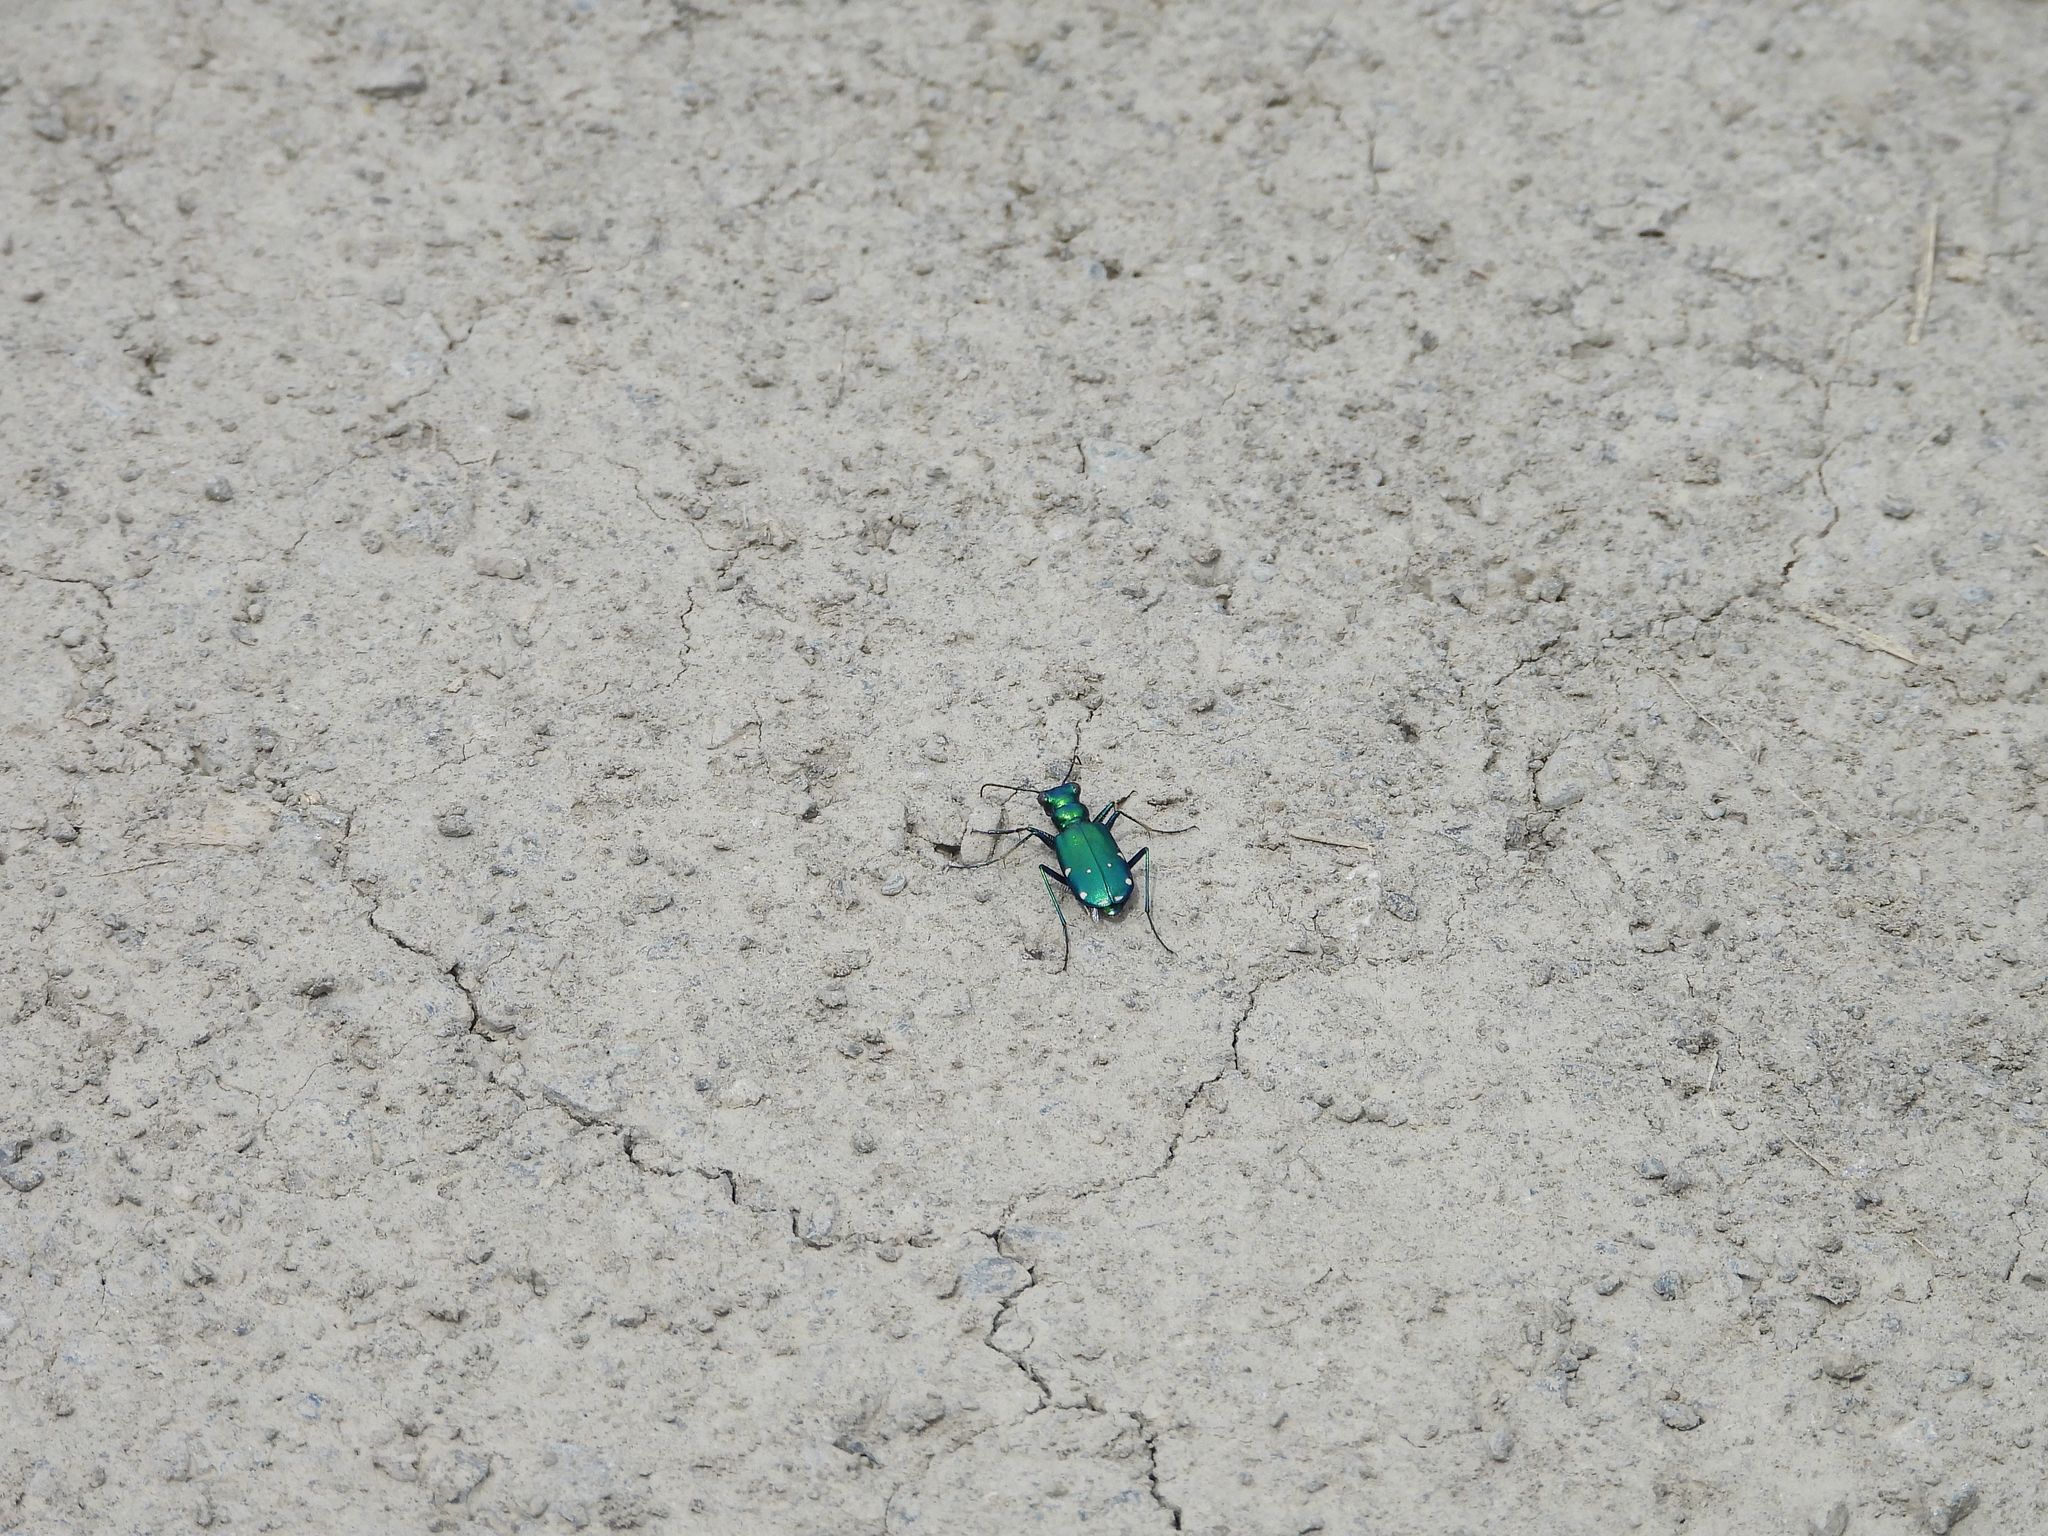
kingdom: Animalia
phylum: Arthropoda
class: Insecta
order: Coleoptera
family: Carabidae
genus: Cicindela
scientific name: Cicindela sexguttata
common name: Six-spotted tiger beetle
